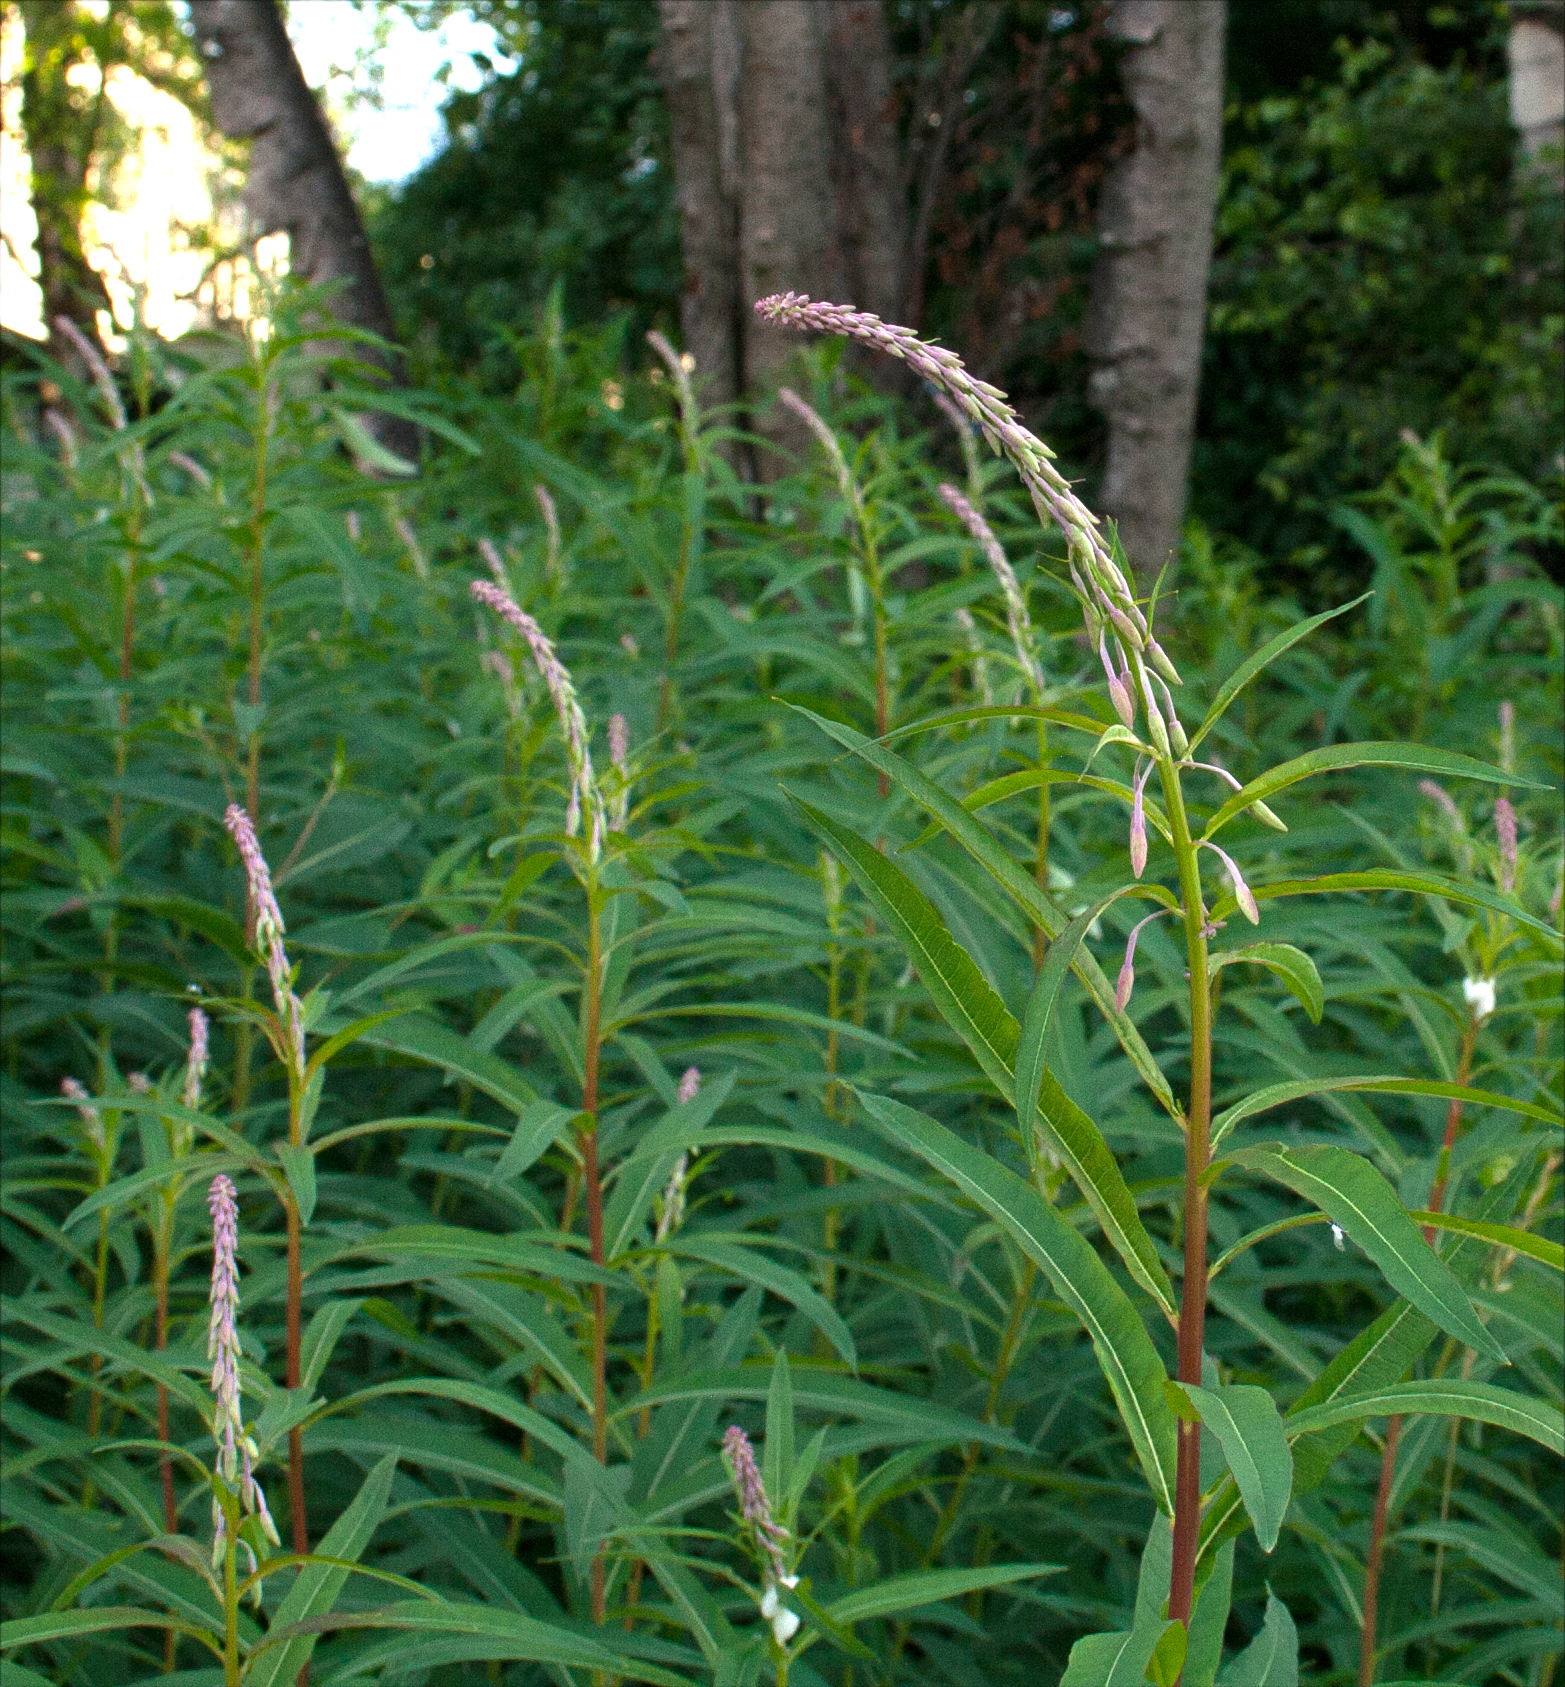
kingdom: Plantae
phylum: Tracheophyta
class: Magnoliopsida
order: Myrtales
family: Onagraceae
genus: Chamaenerion
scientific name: Chamaenerion angustifolium
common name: Fireweed
